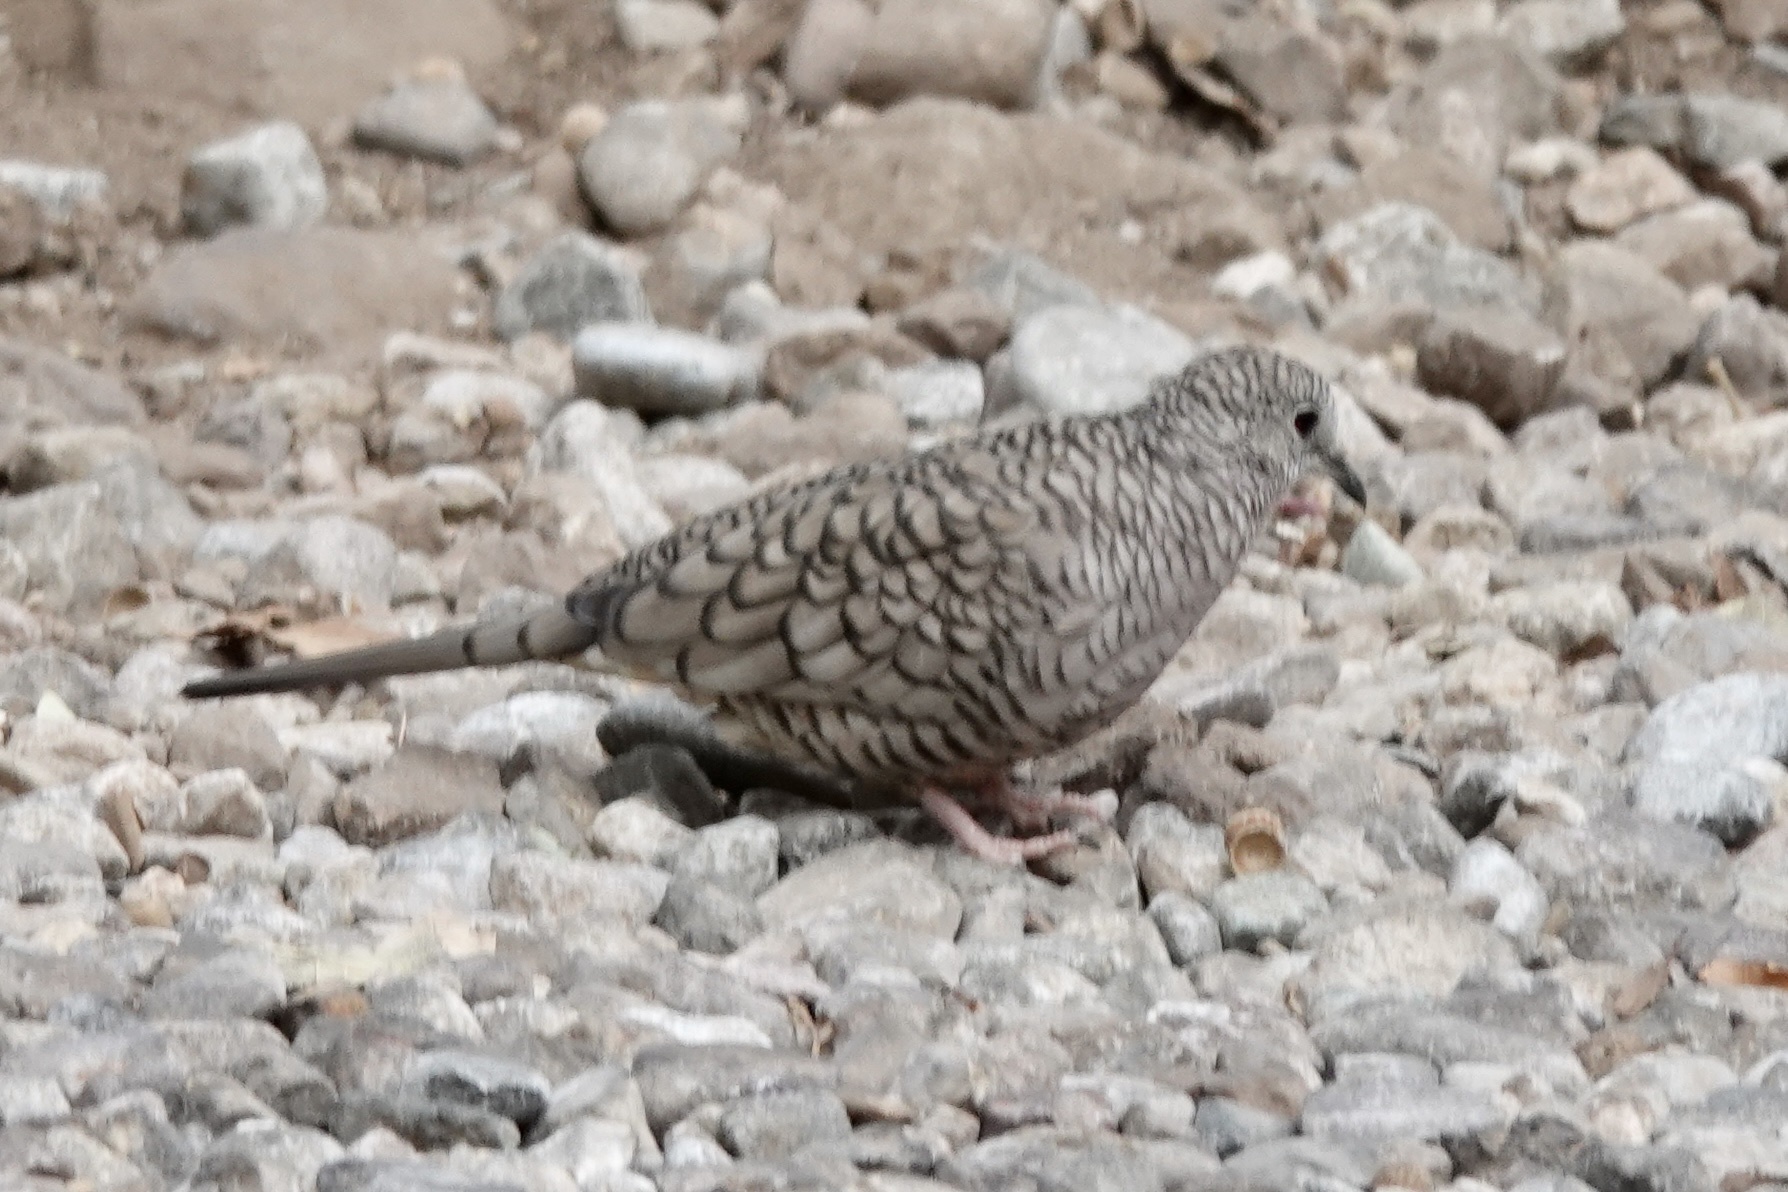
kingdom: Animalia
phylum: Chordata
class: Aves
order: Columbiformes
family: Columbidae
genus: Columbina
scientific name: Columbina inca
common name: Inca dove
